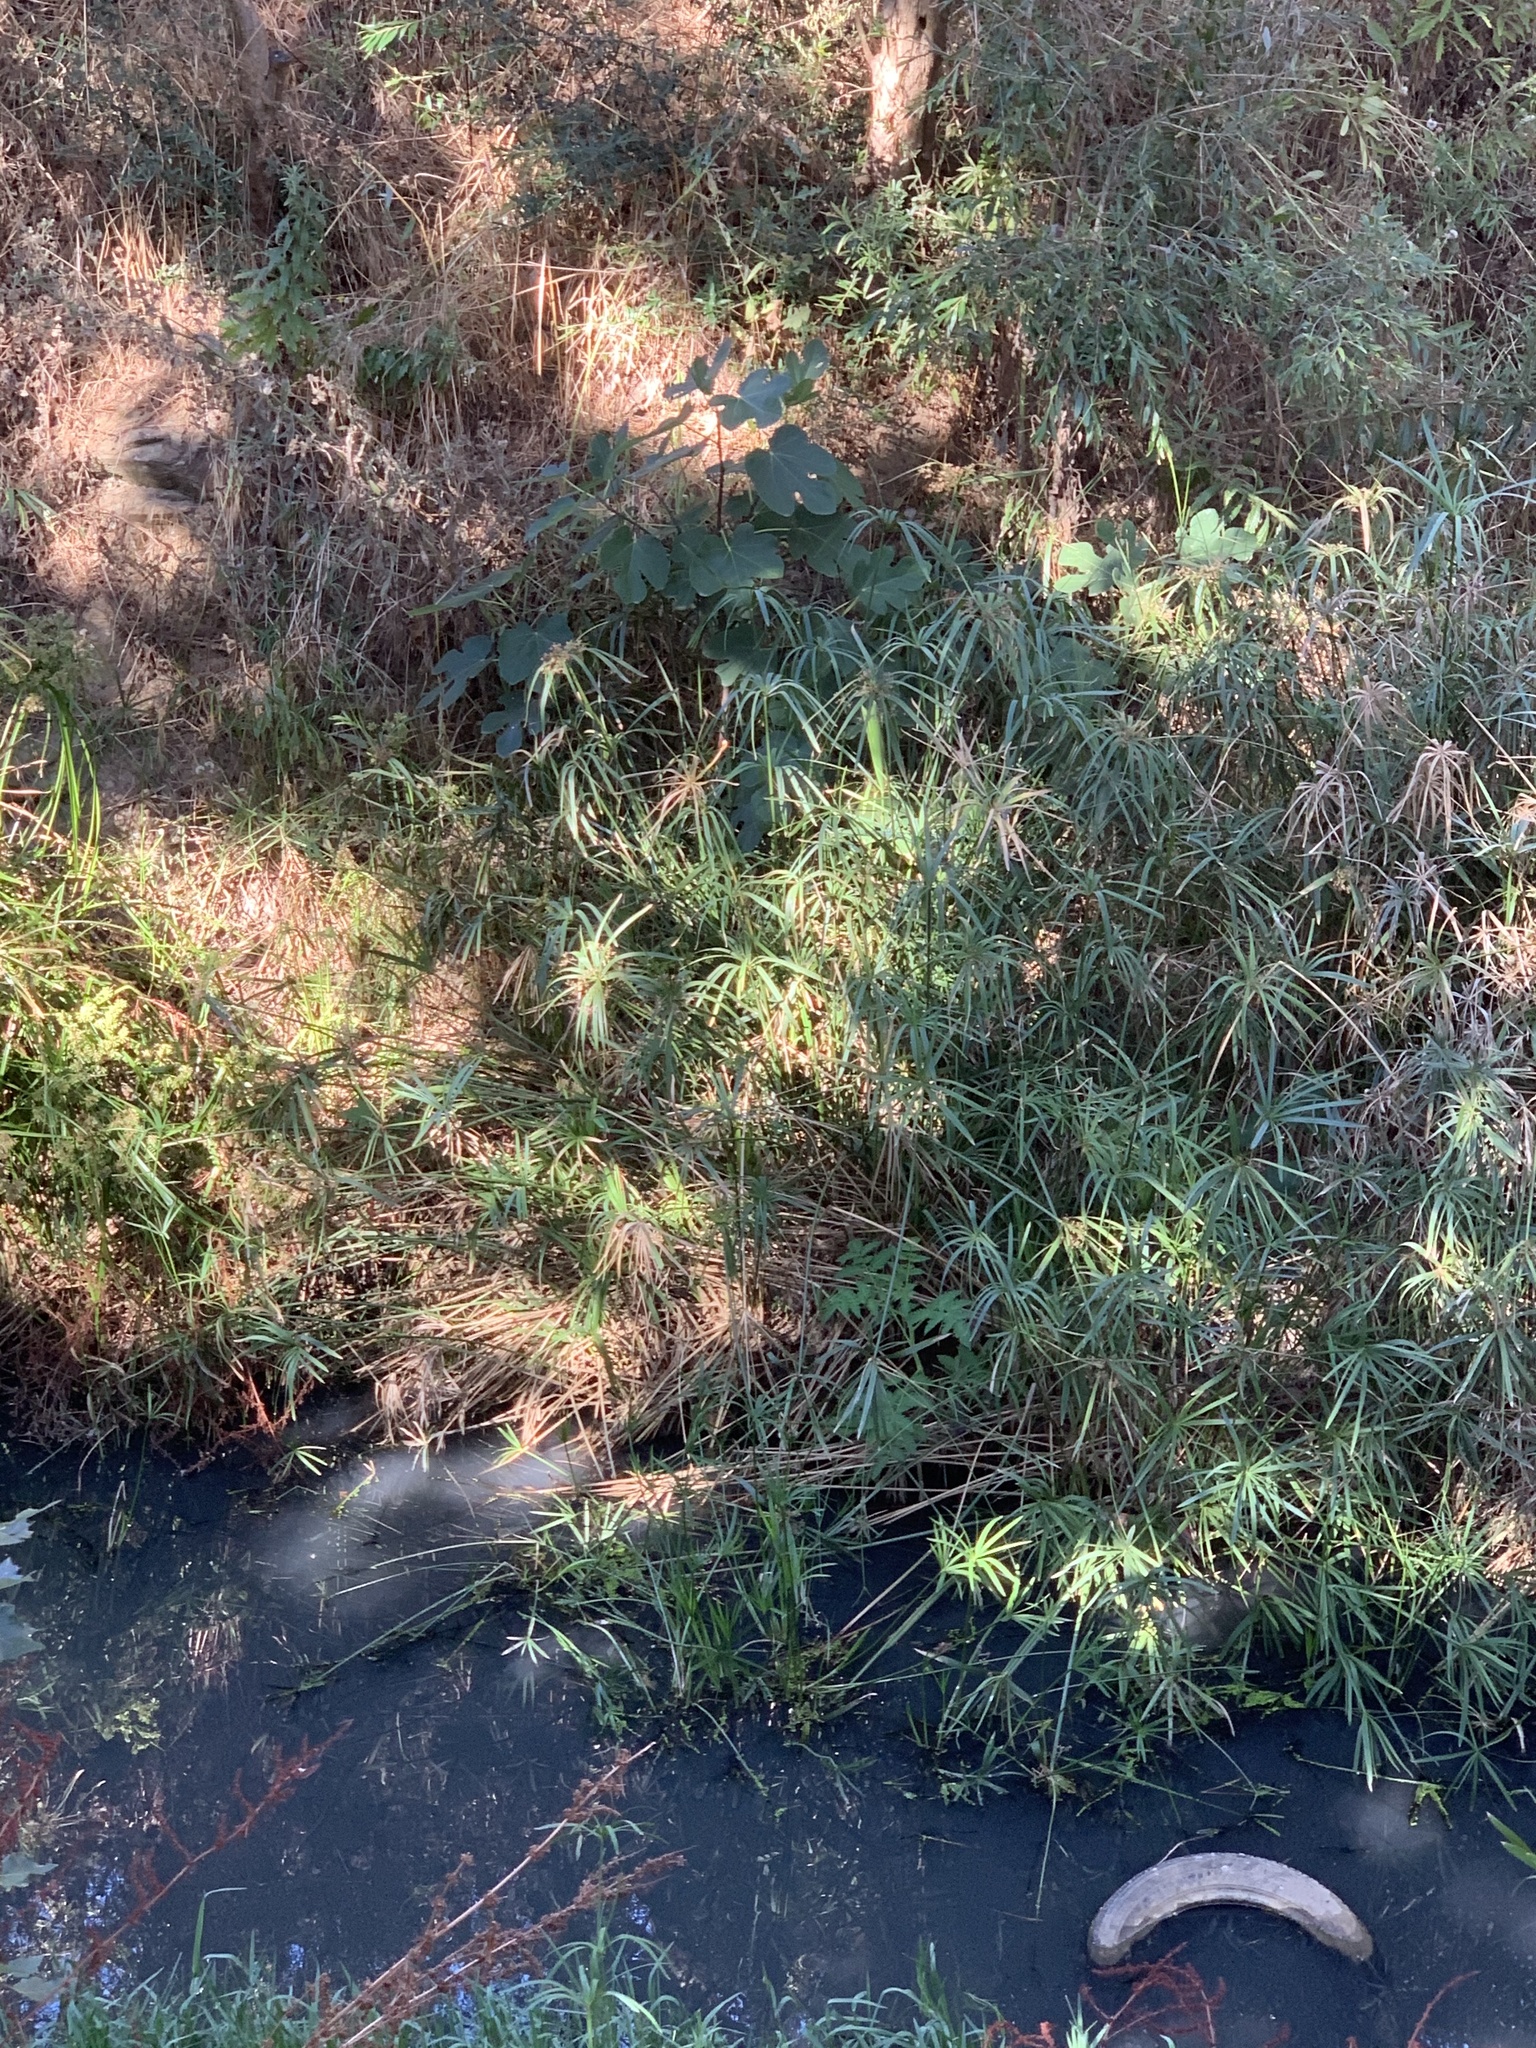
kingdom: Plantae
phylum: Tracheophyta
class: Magnoliopsida
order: Rosales
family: Moraceae
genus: Ficus
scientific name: Ficus carica
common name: Fig
